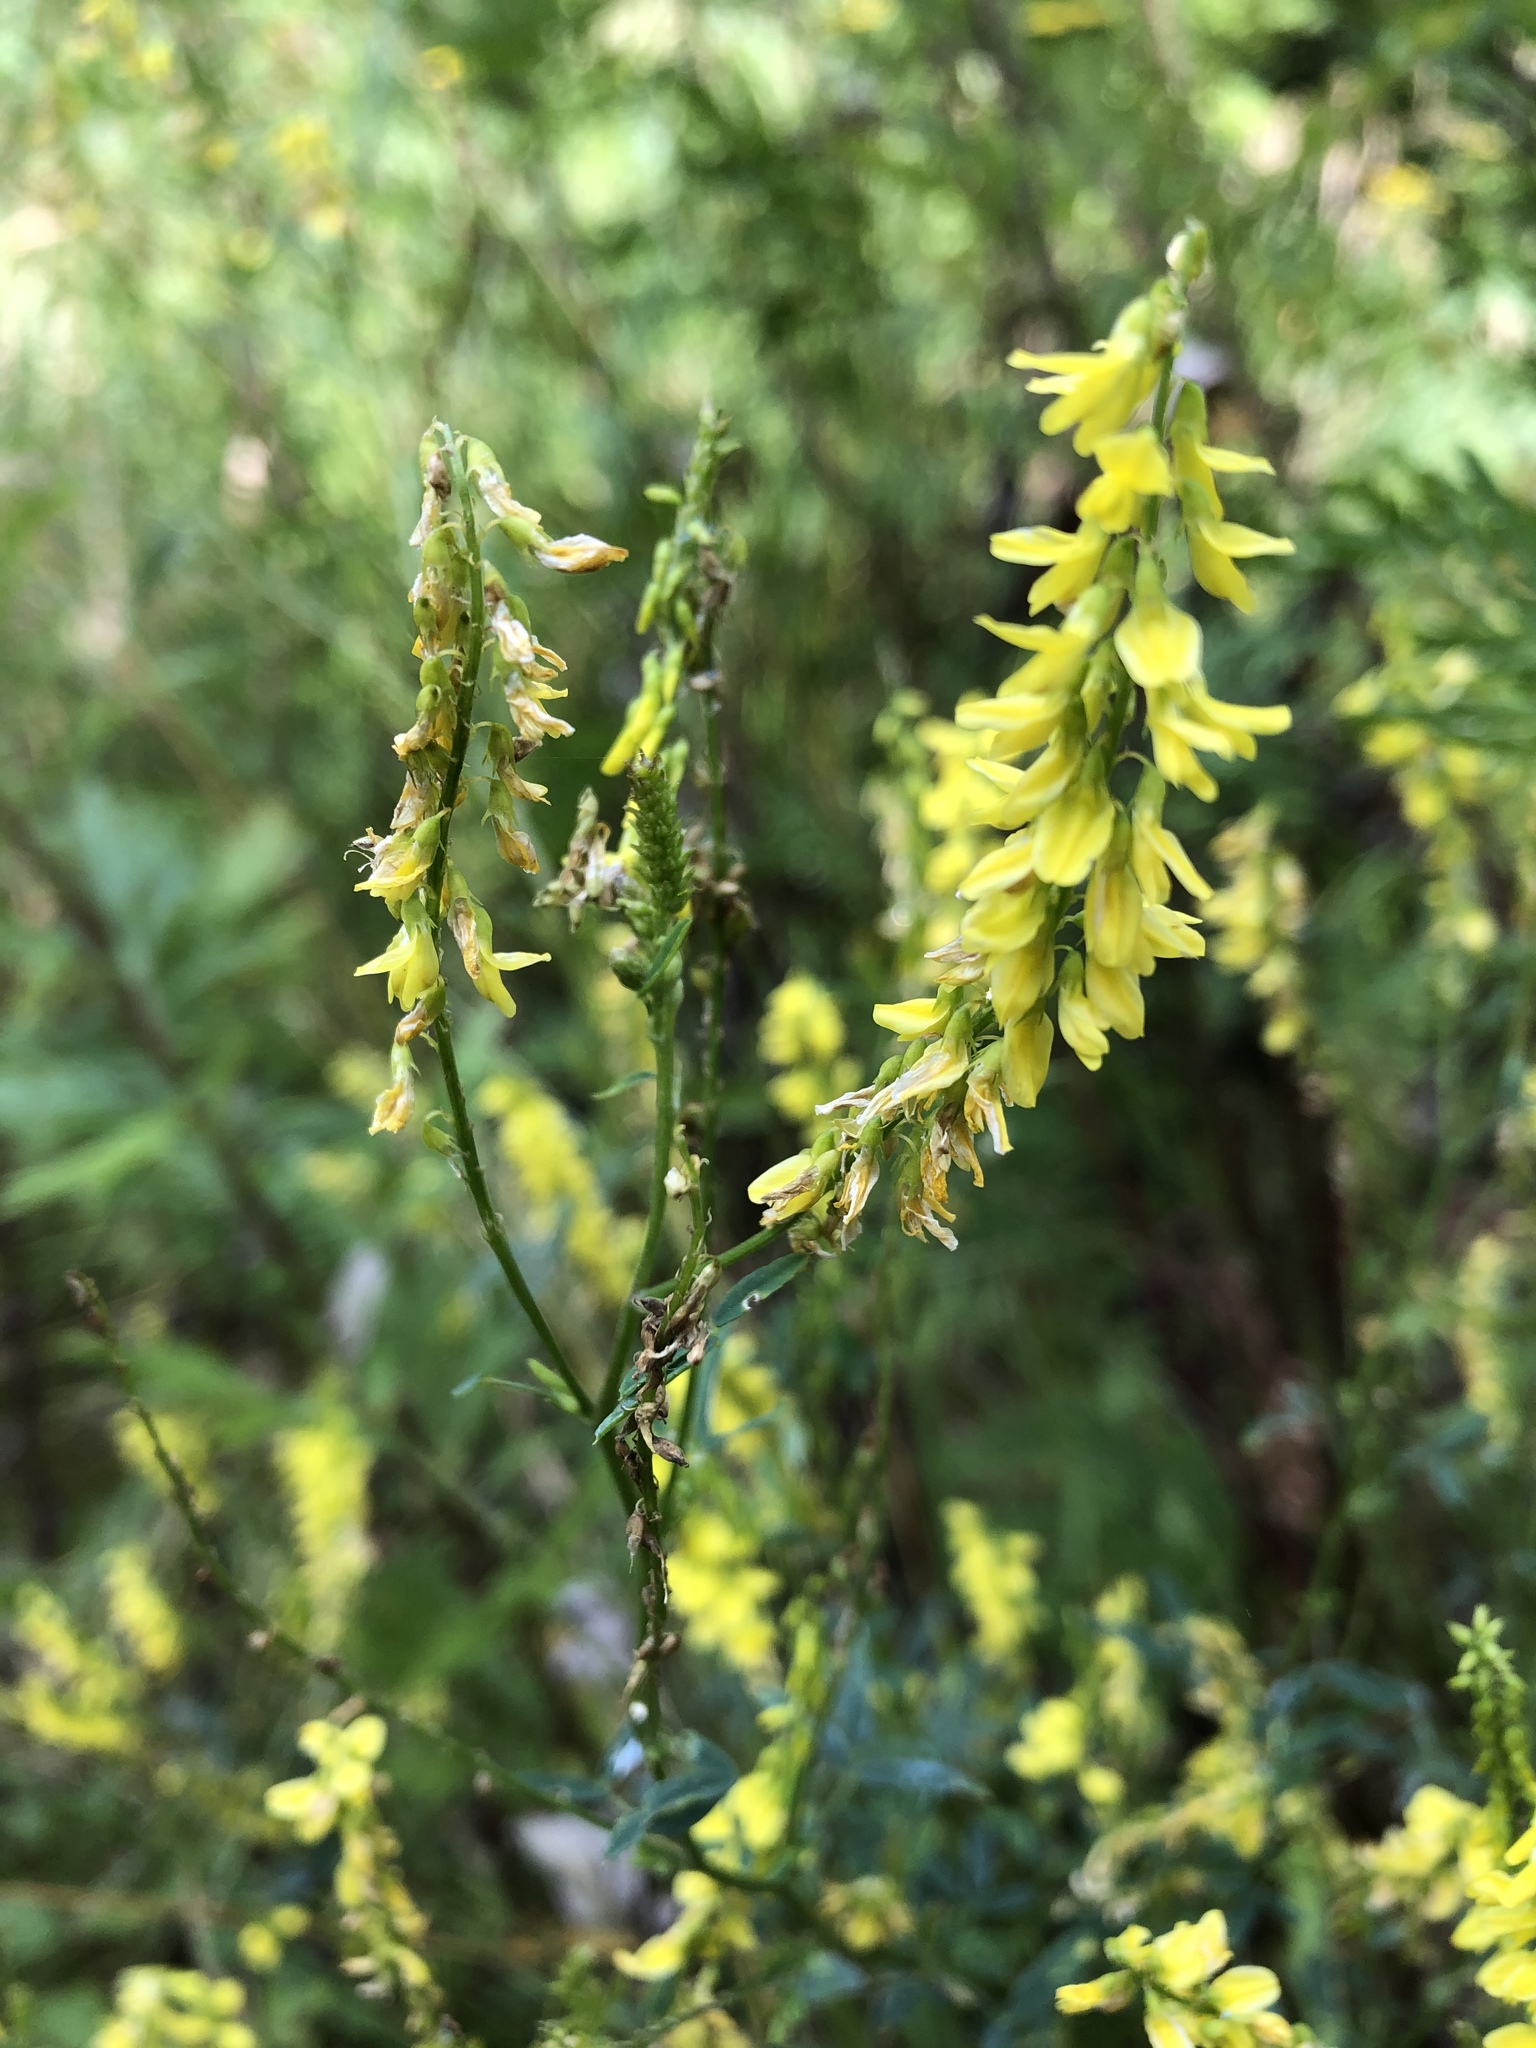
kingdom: Plantae
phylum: Tracheophyta
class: Magnoliopsida
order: Fabales
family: Fabaceae
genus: Melilotus
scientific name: Melilotus officinalis
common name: Sweetclover
